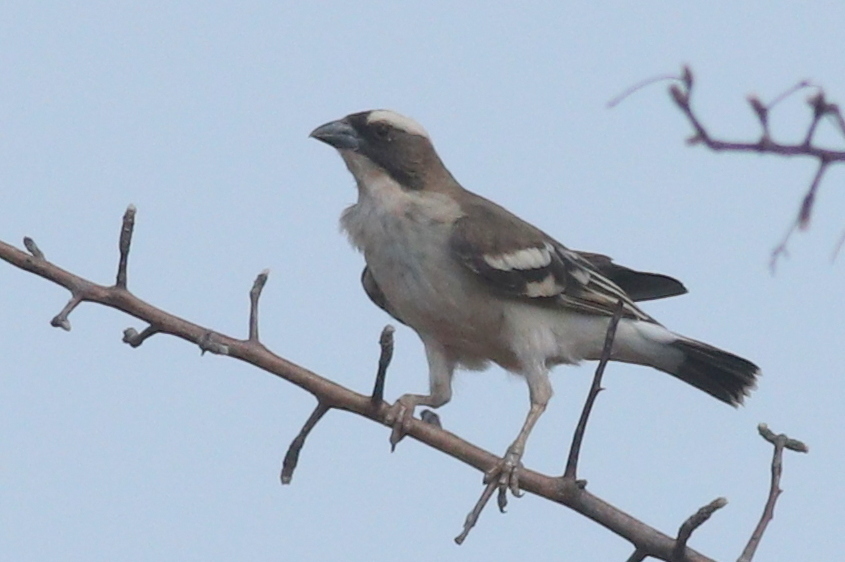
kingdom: Animalia
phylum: Chordata
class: Aves
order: Passeriformes
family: Passeridae
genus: Plocepasser
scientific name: Plocepasser mahali
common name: White-browed sparrow-weaver
